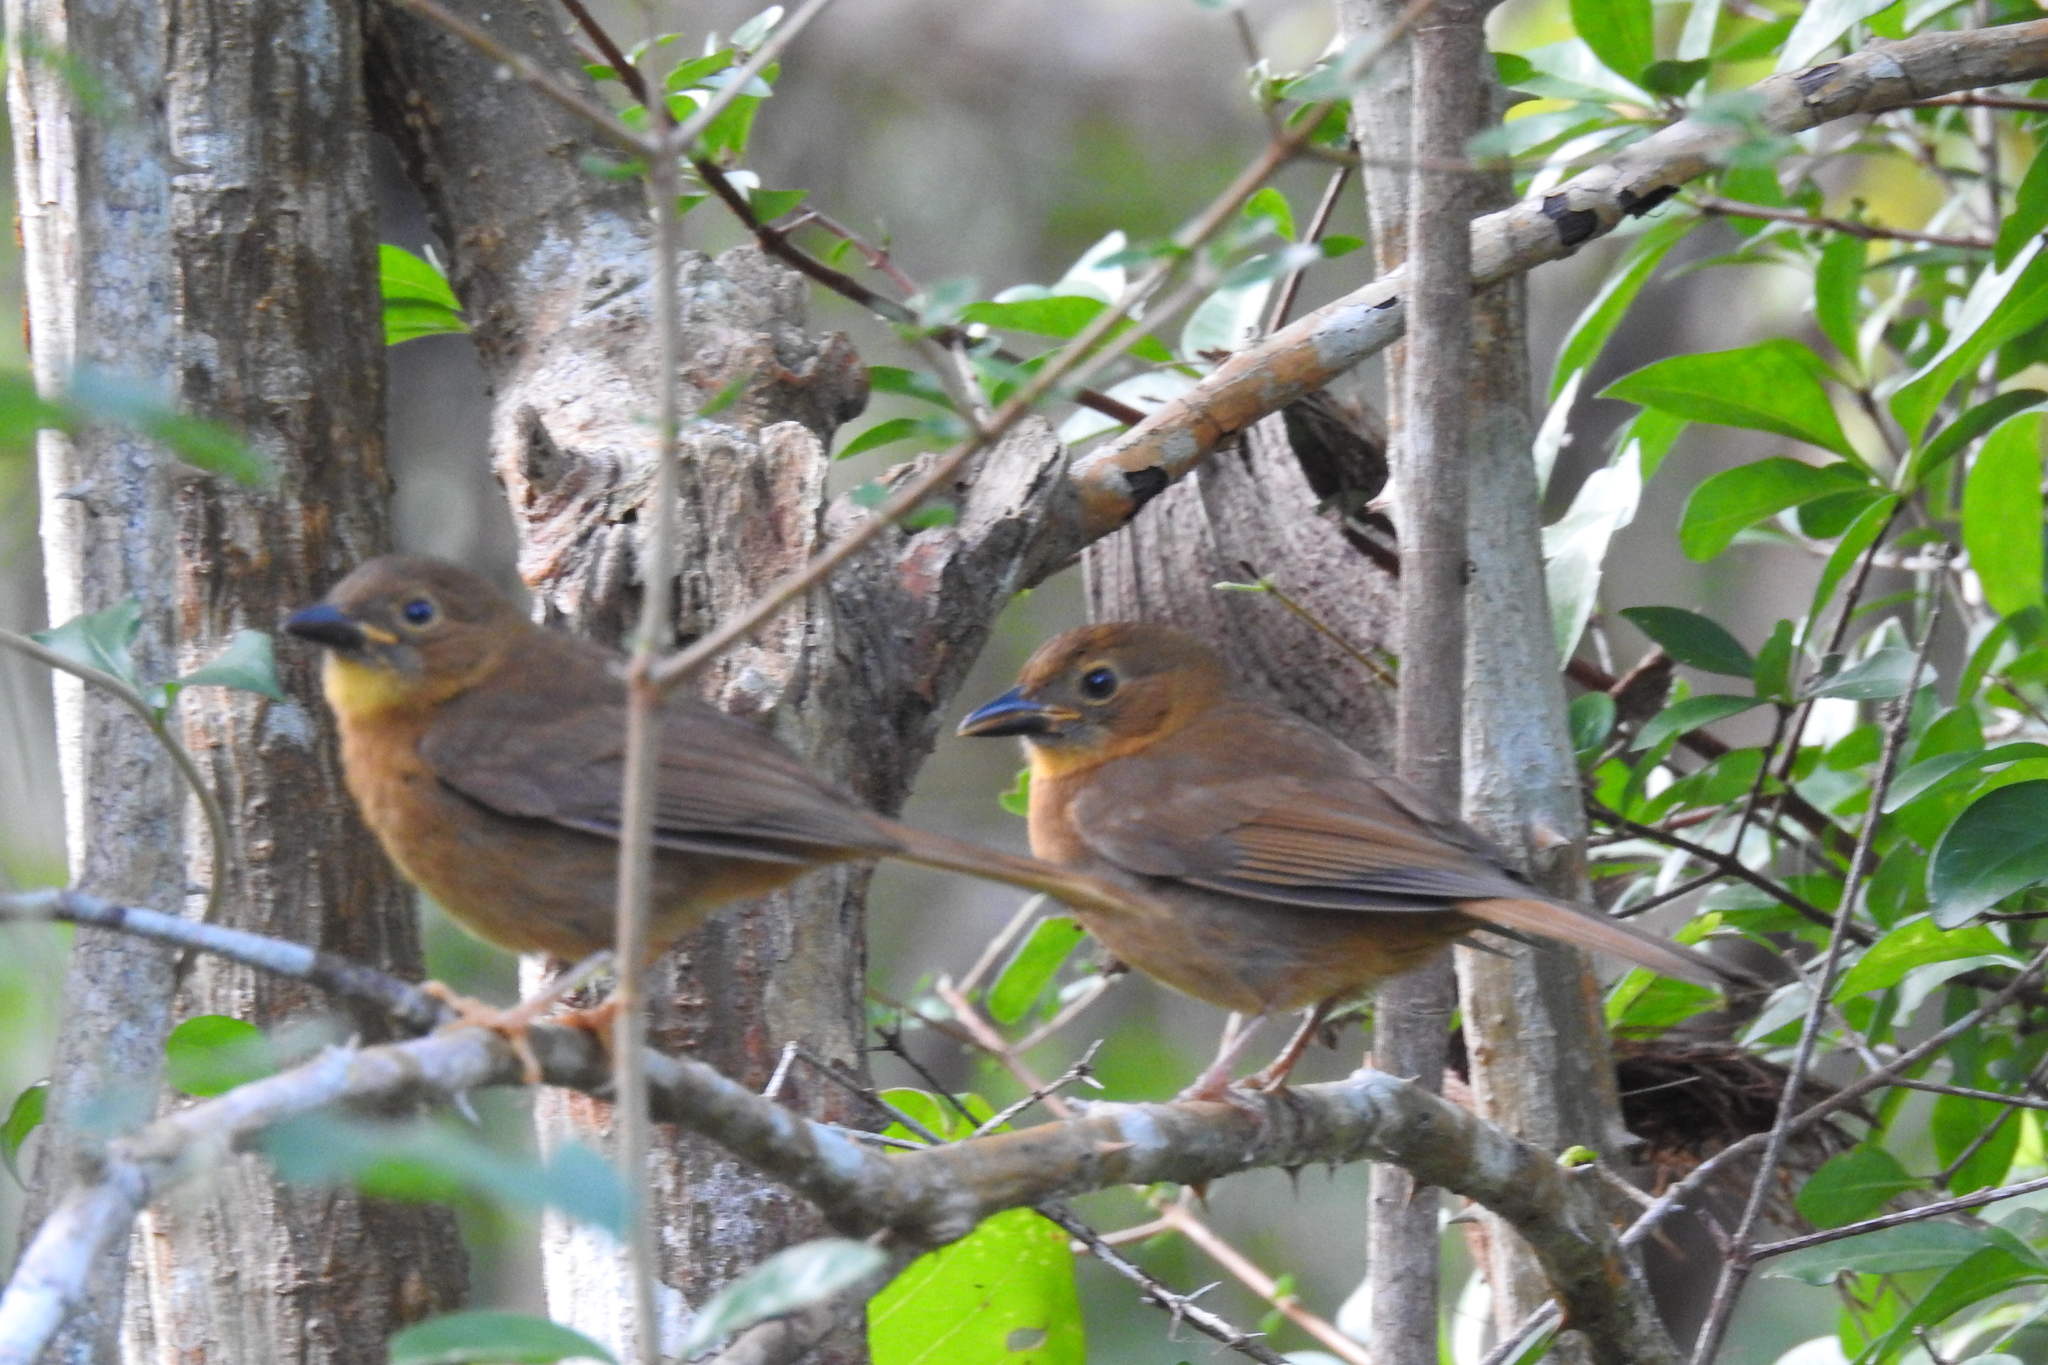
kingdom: Animalia
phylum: Chordata
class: Aves
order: Passeriformes
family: Cardinalidae
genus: Habia
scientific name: Habia fuscicauda
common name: Red-throated ant-tanager
